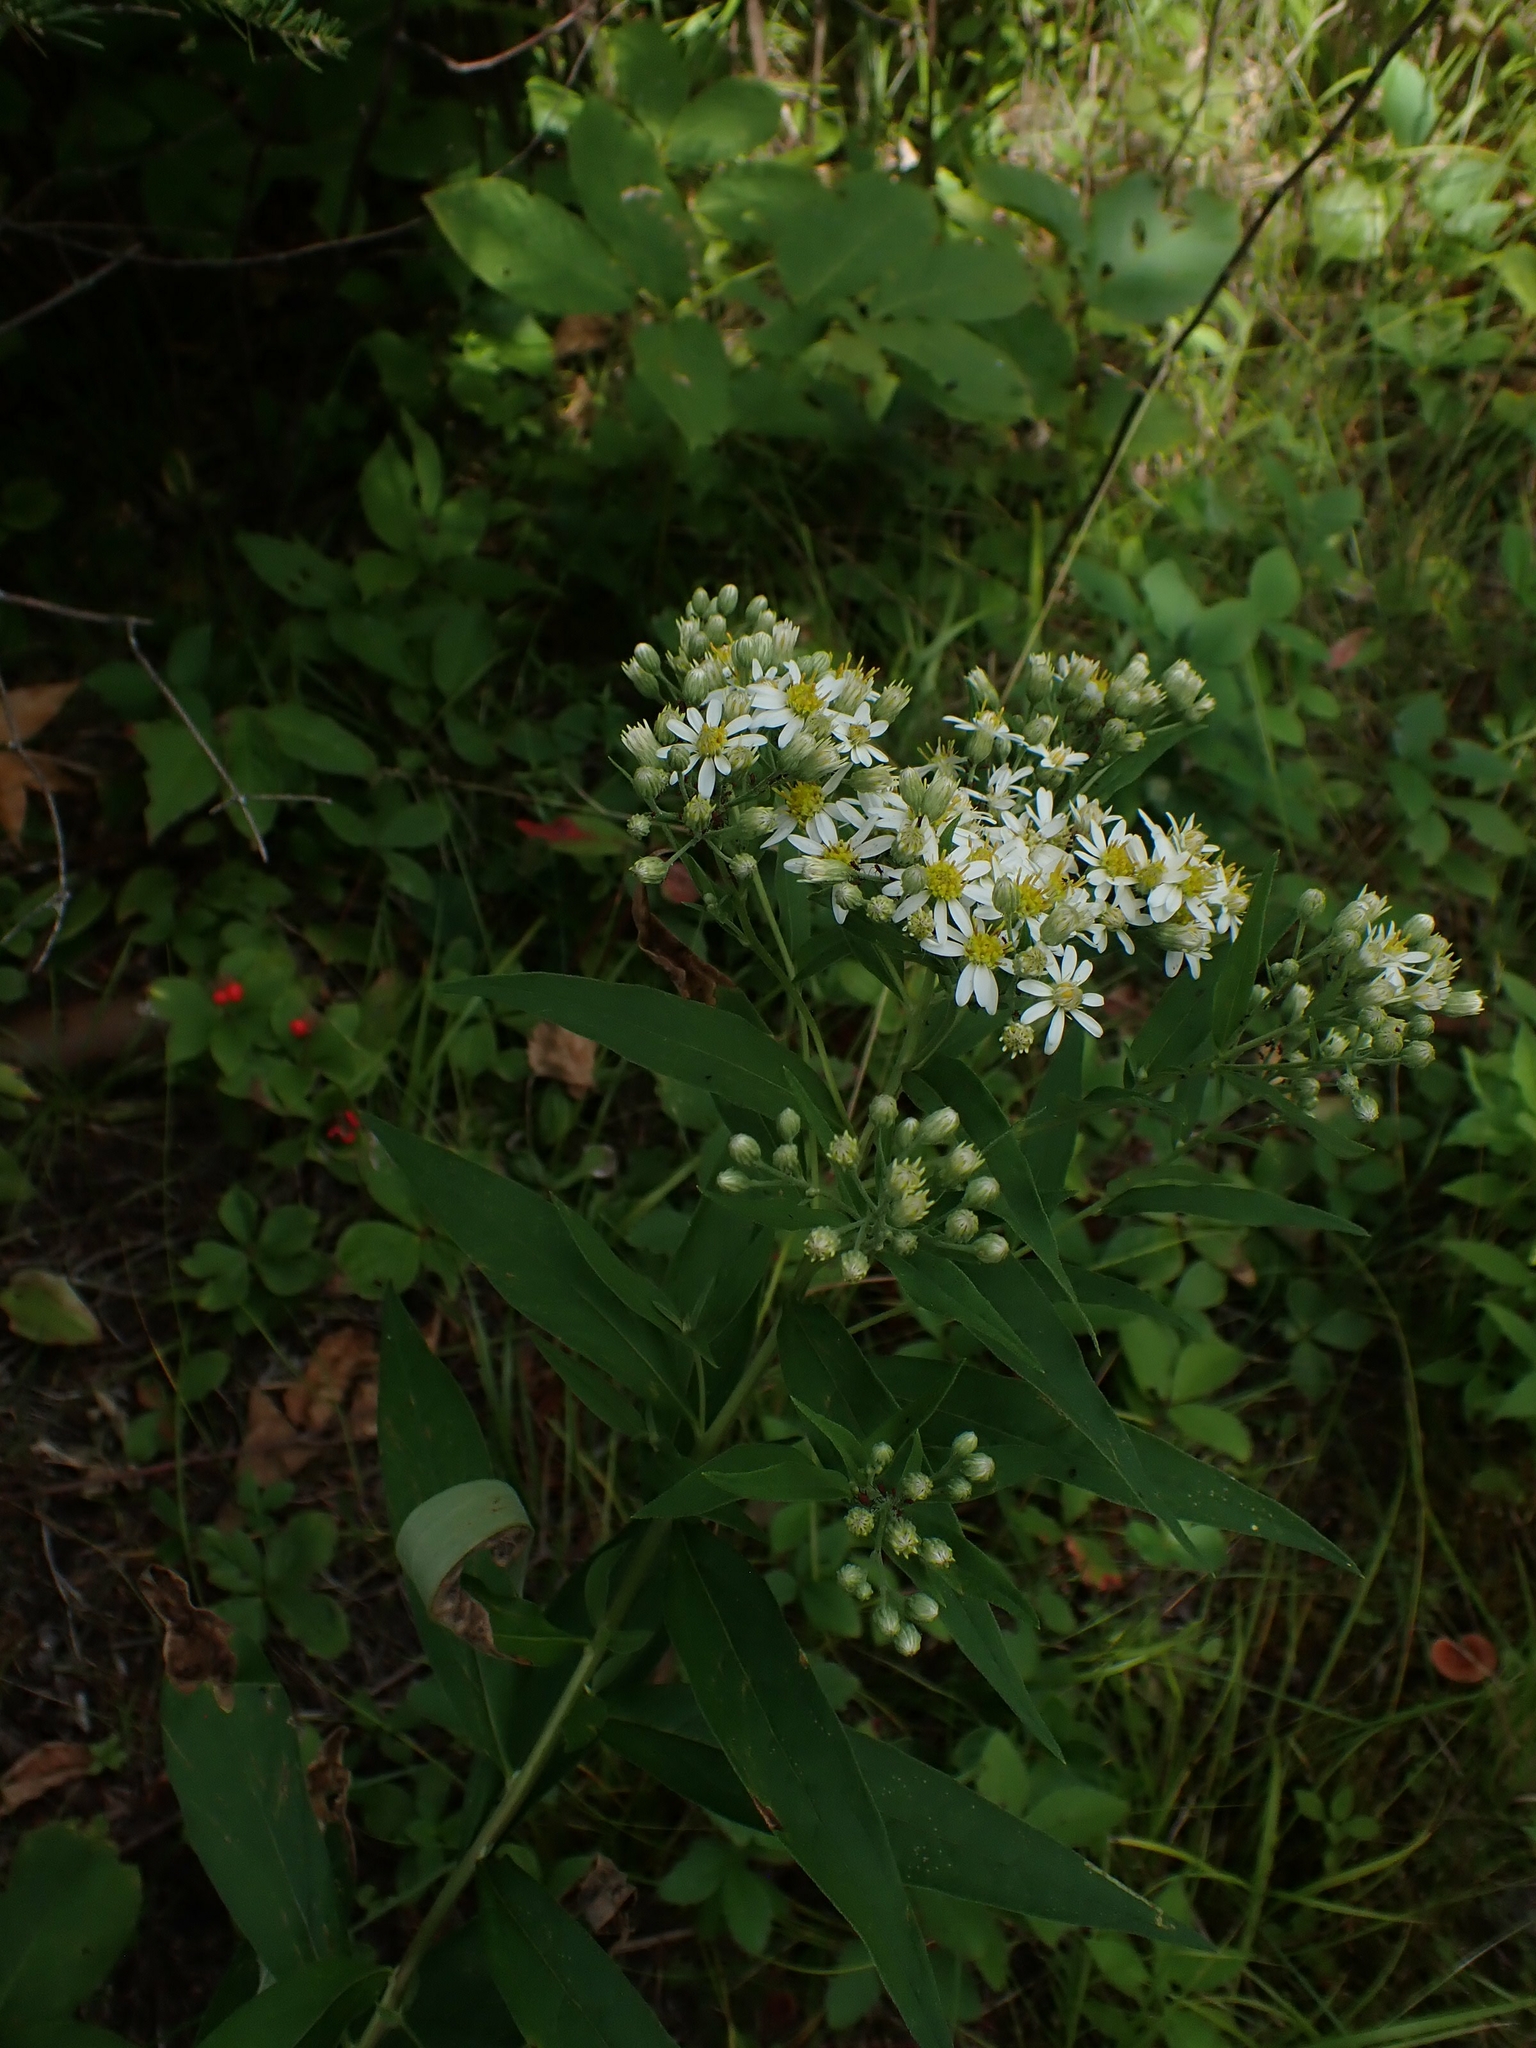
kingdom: Plantae
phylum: Tracheophyta
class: Magnoliopsida
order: Asterales
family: Asteraceae
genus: Doellingeria
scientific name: Doellingeria umbellata
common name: Flat-top white aster
